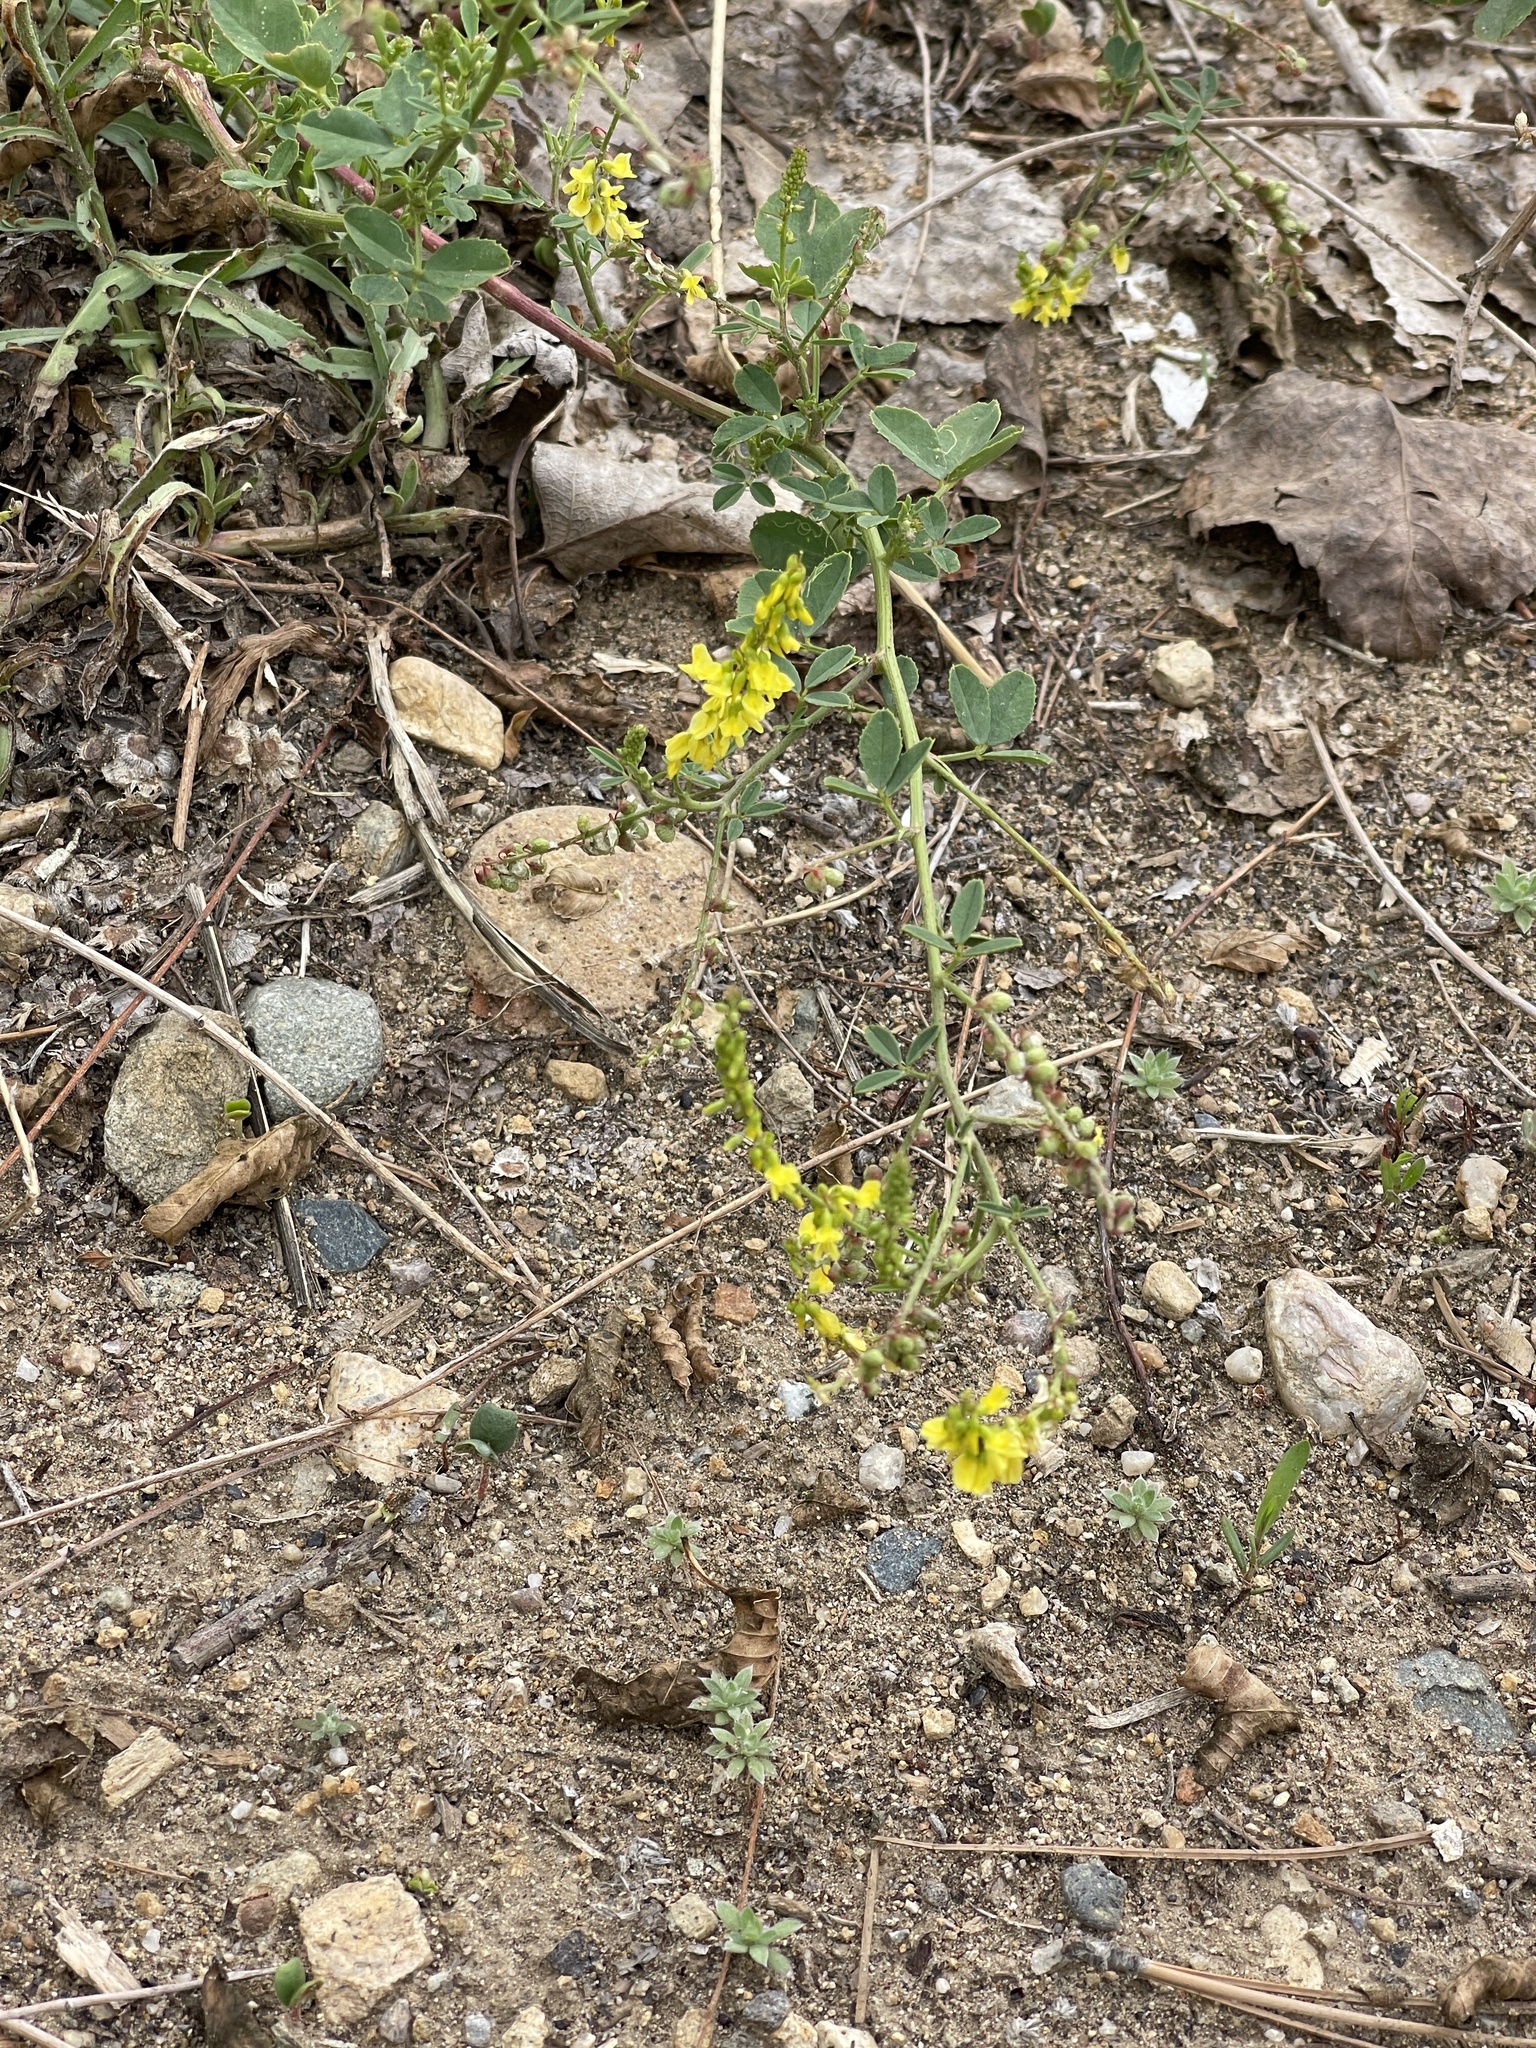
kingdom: Plantae
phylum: Tracheophyta
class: Magnoliopsida
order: Fabales
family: Fabaceae
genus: Melilotus
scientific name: Melilotus officinalis
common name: Sweetclover
